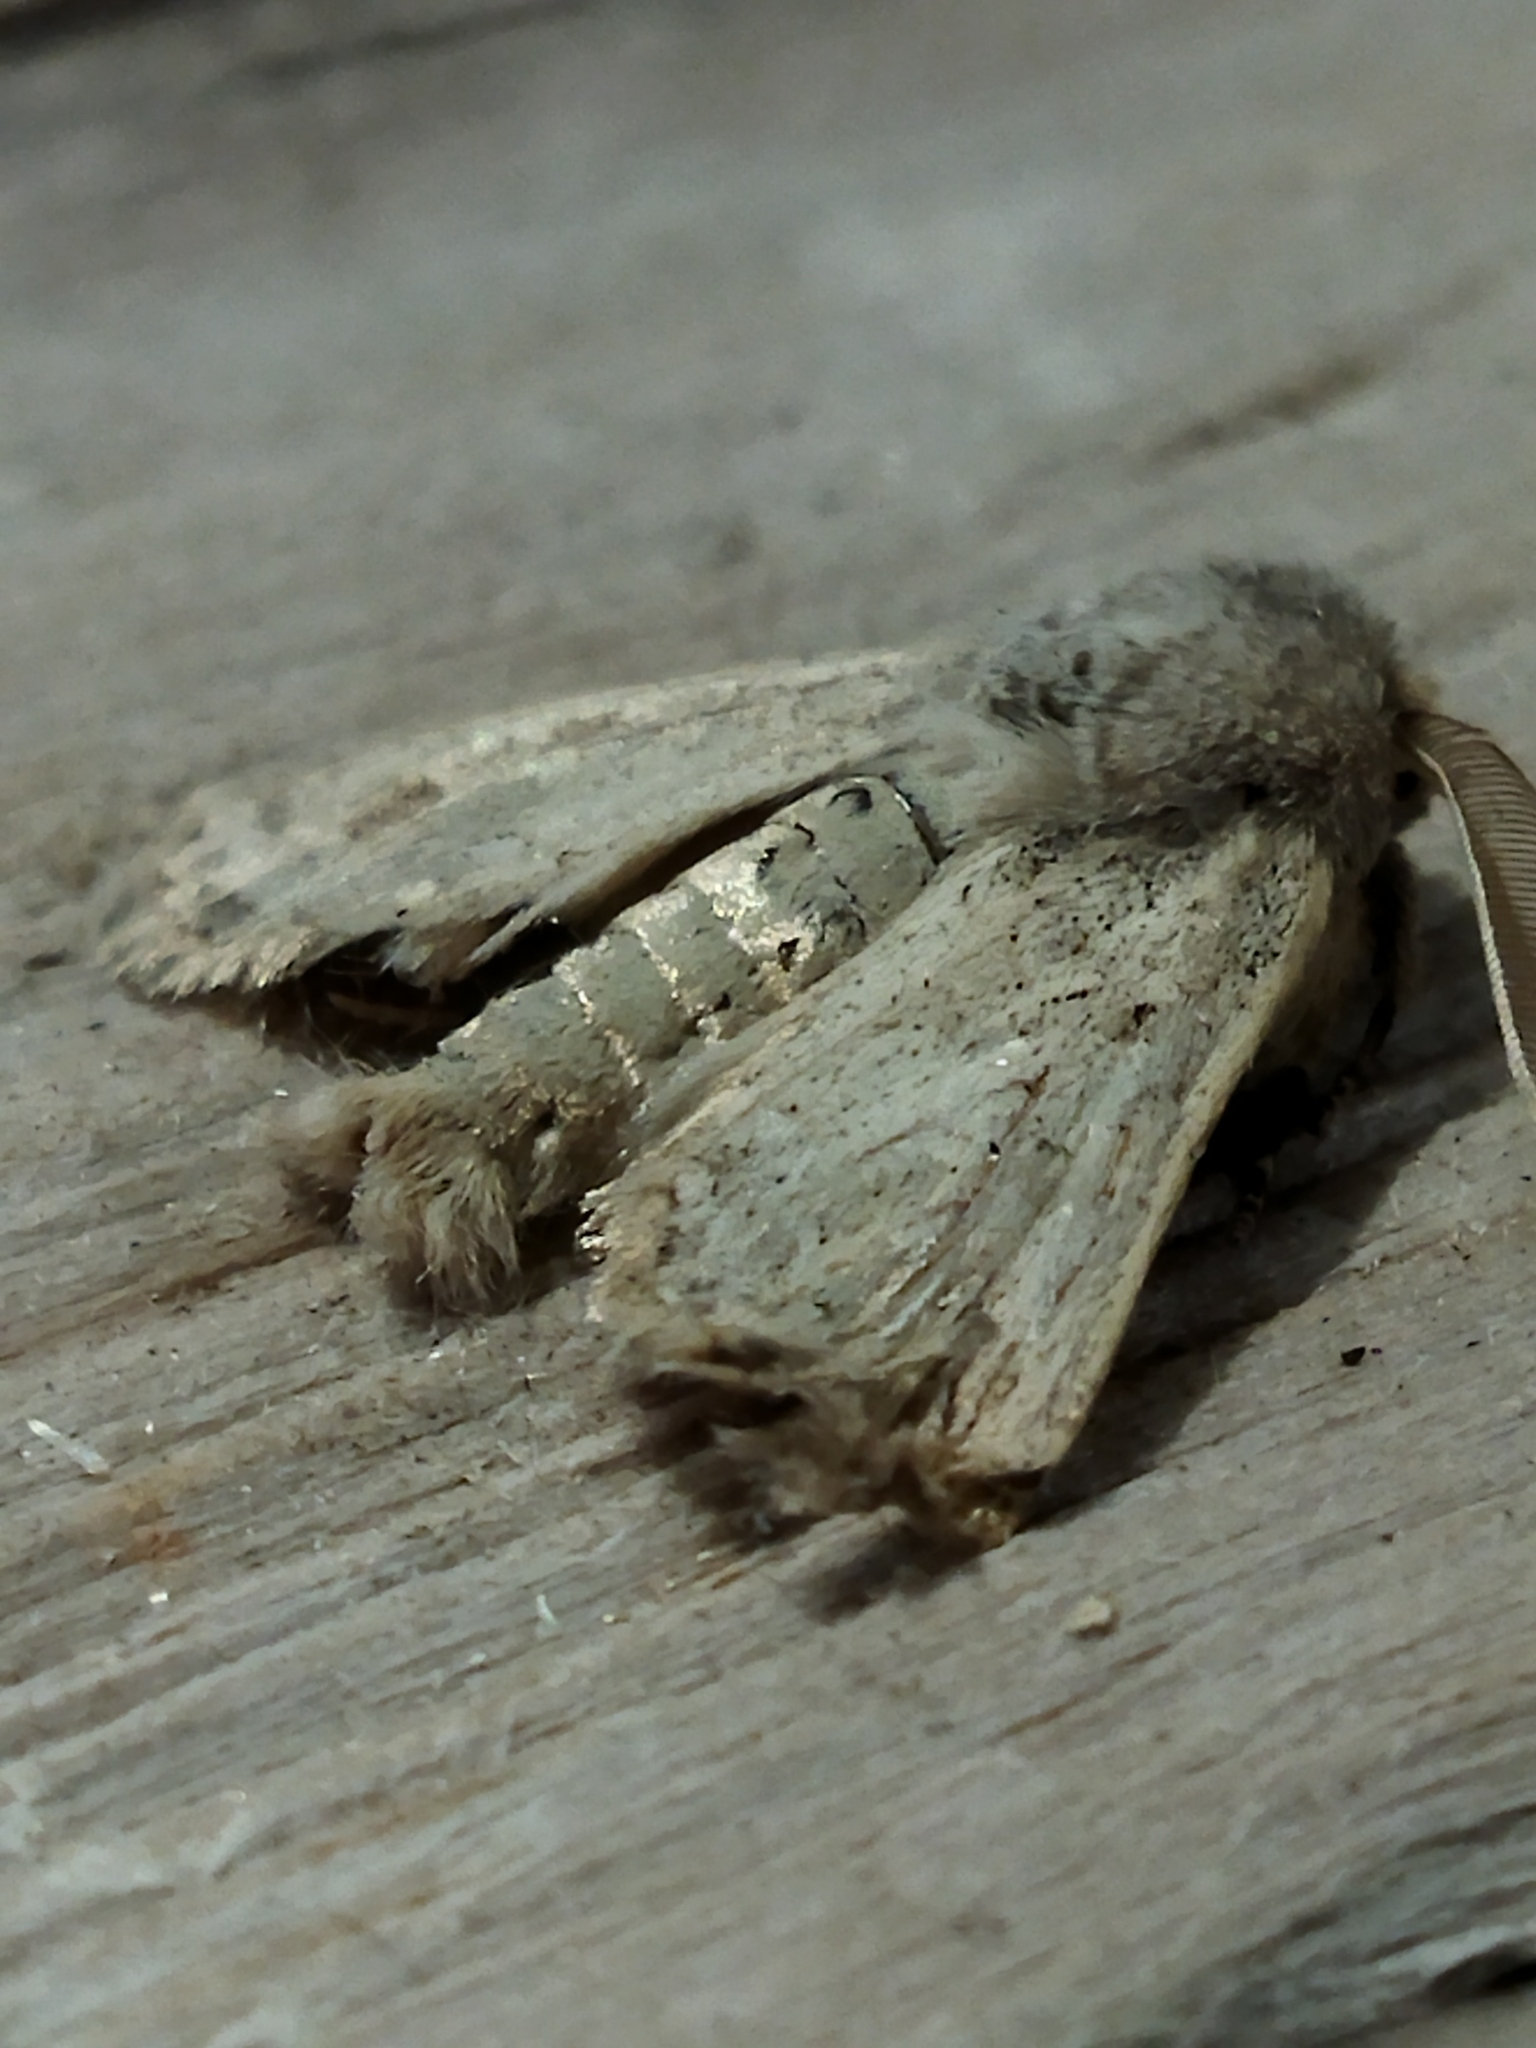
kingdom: Animalia
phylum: Arthropoda
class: Insecta
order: Lepidoptera
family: Noctuidae
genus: Episema
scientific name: Episema lederi
